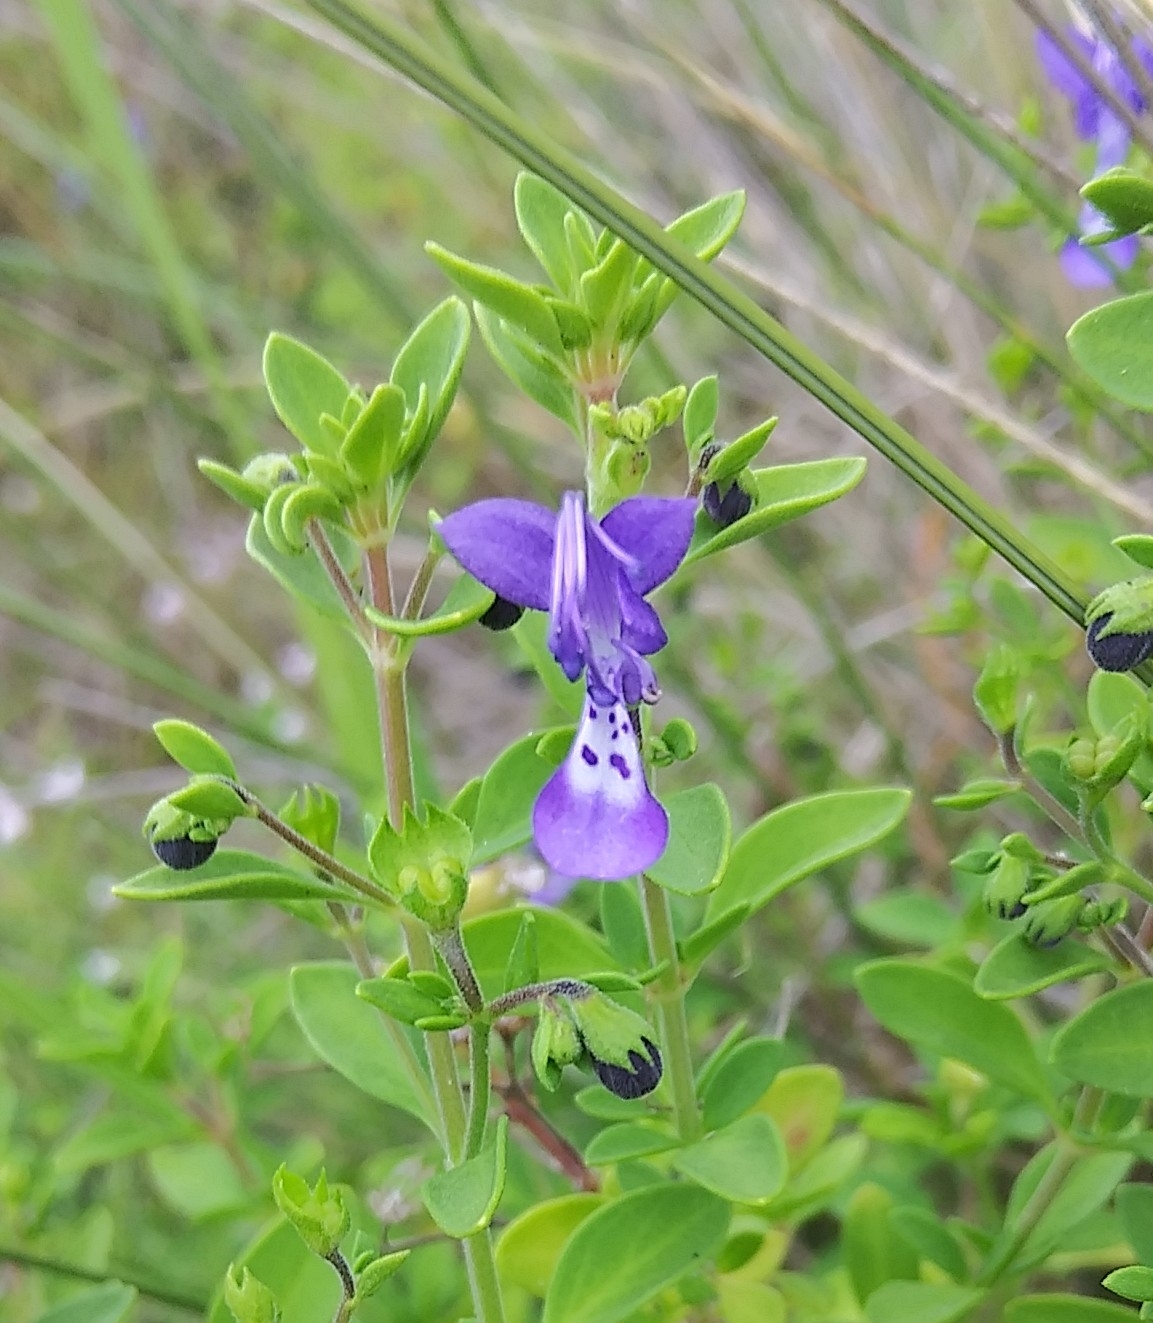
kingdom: Plantae
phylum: Tracheophyta
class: Magnoliopsida
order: Lamiales
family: Lamiaceae
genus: Trichostema
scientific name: Trichostema
